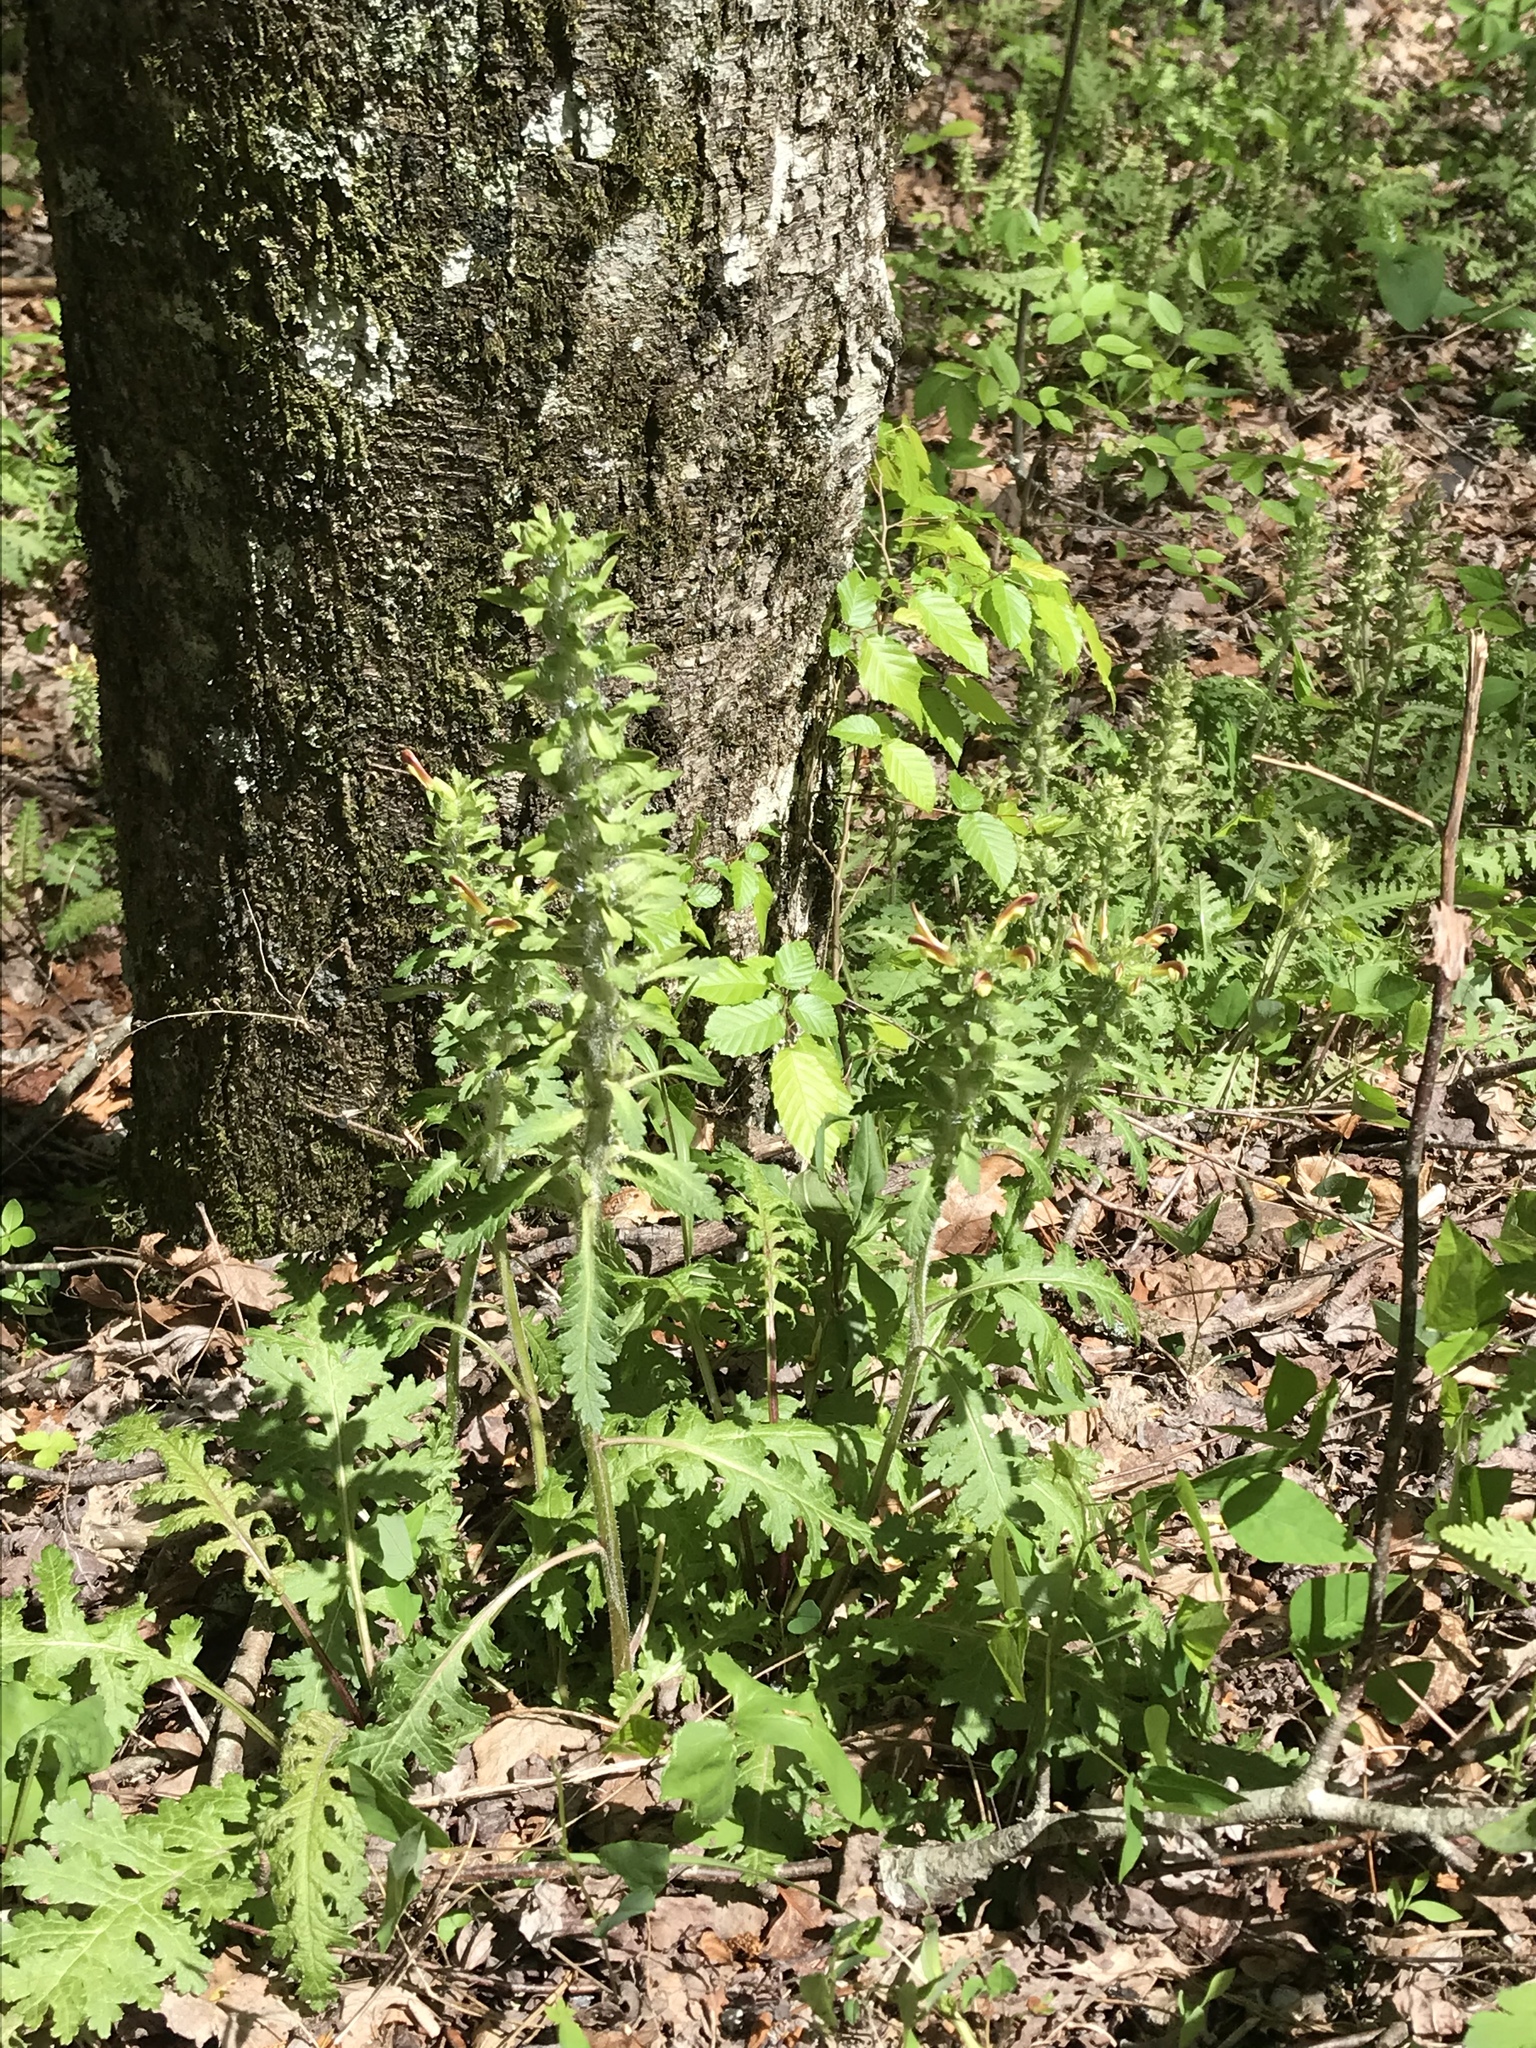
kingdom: Plantae
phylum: Tracheophyta
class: Magnoliopsida
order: Lamiales
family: Orobanchaceae
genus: Pedicularis
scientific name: Pedicularis canadensis
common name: Early lousewort
